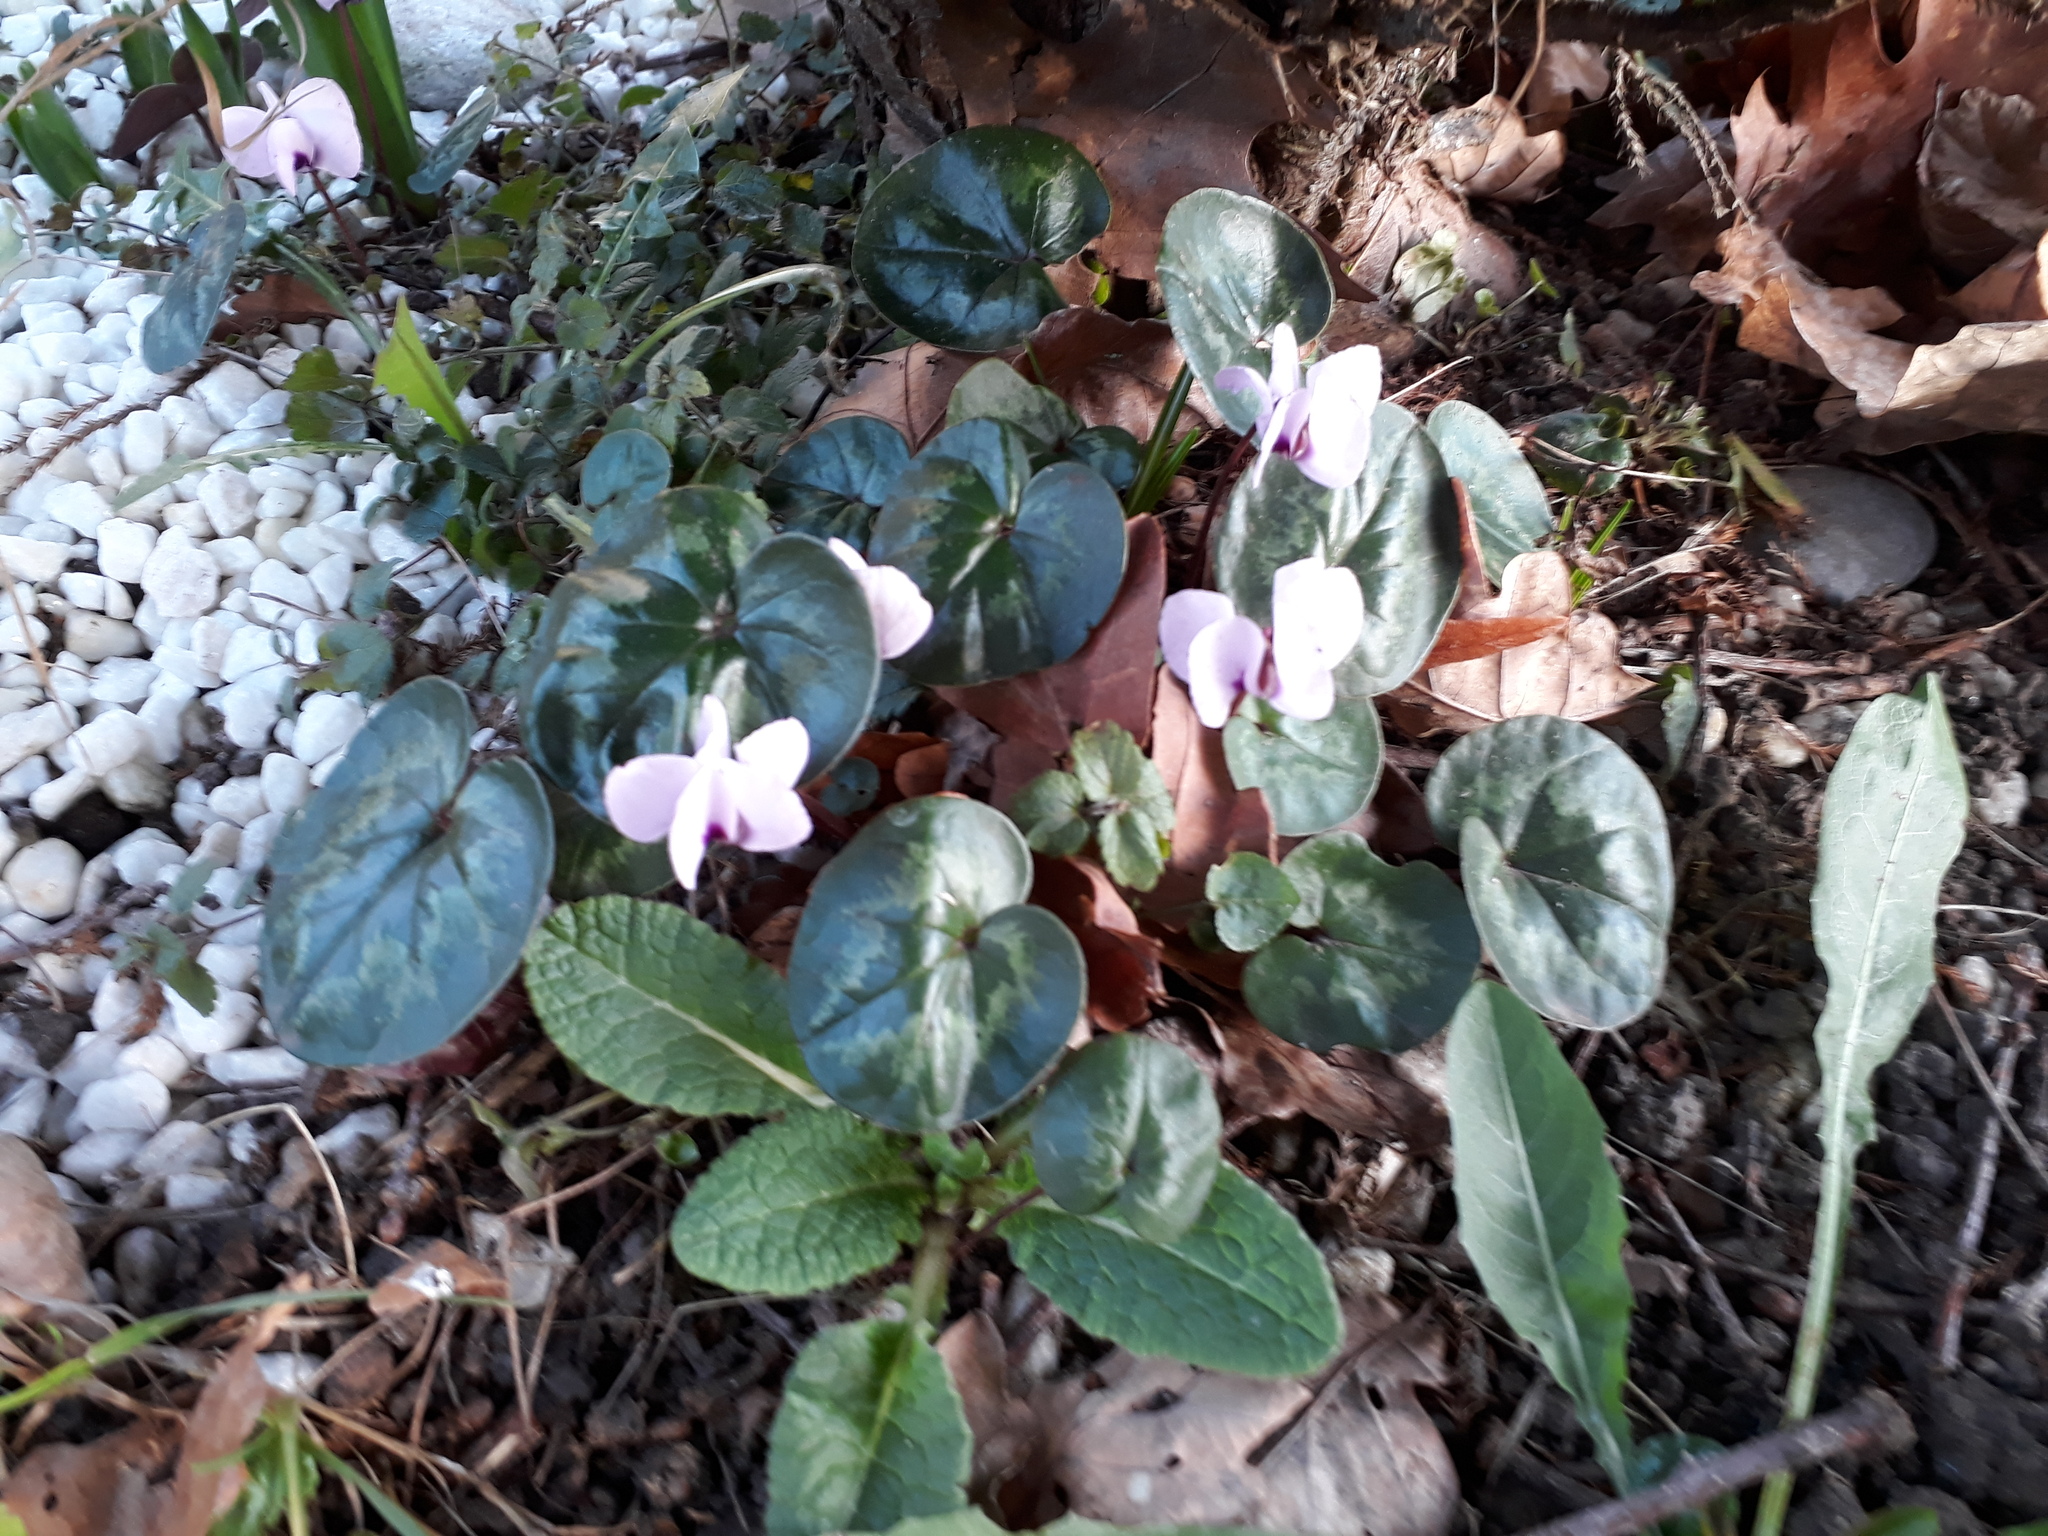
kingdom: Plantae
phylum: Tracheophyta
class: Magnoliopsida
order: Ericales
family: Primulaceae
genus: Cyclamen
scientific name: Cyclamen coum
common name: Eastern sowbread
